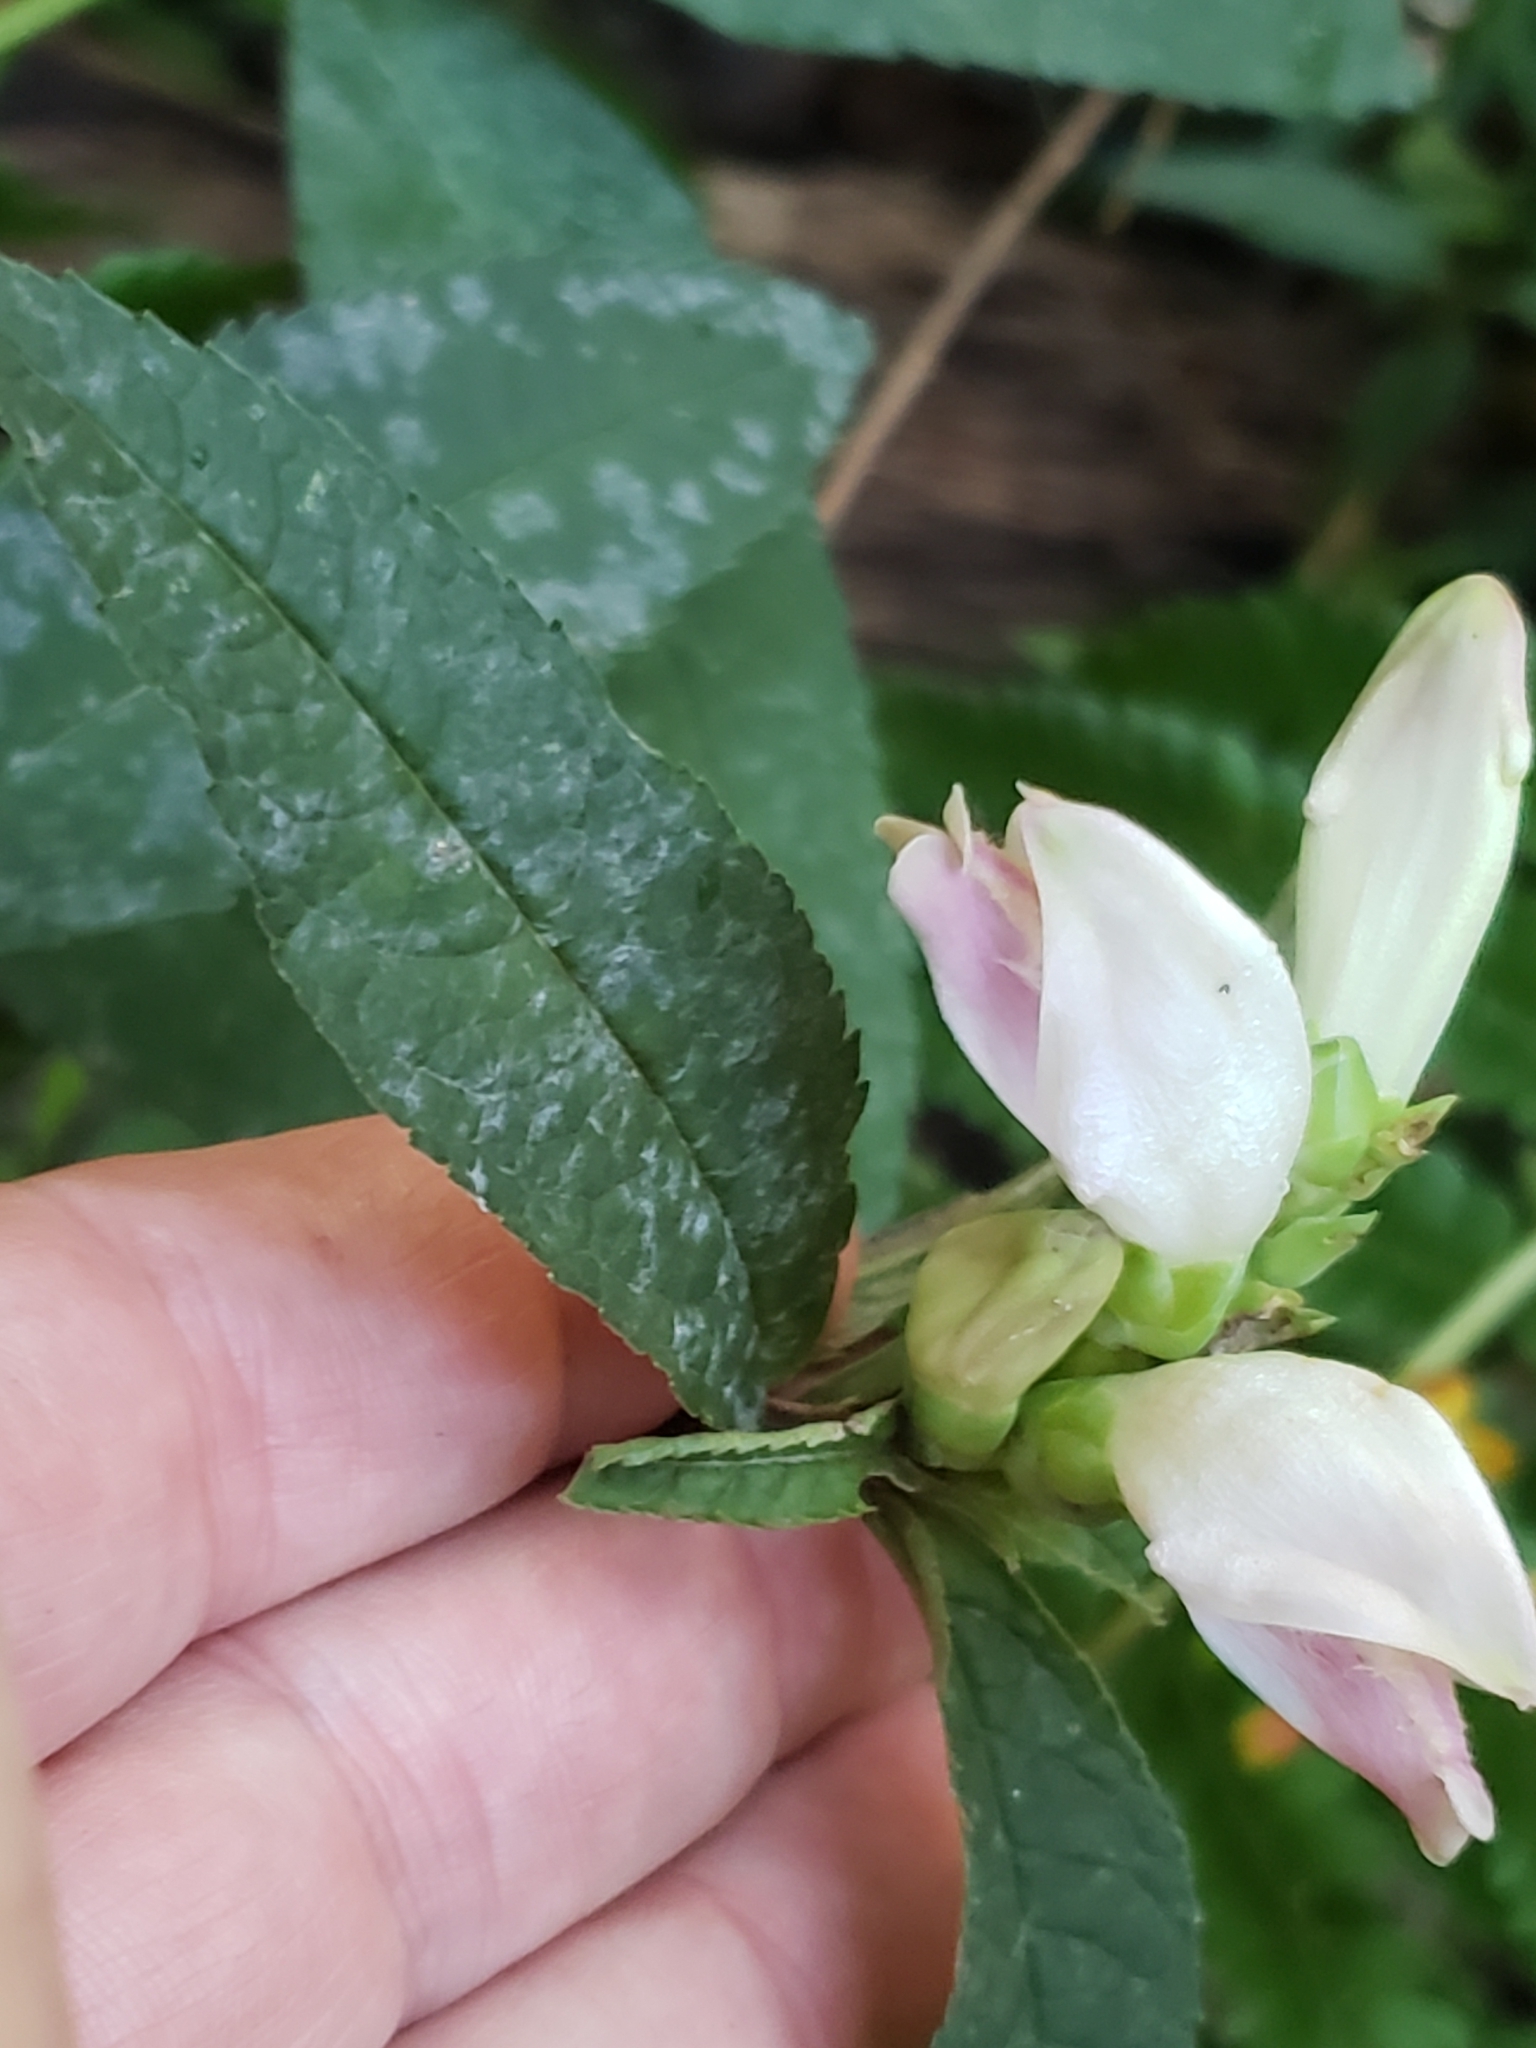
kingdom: Plantae
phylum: Tracheophyta
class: Magnoliopsida
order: Lamiales
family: Plantaginaceae
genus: Chelone
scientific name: Chelone glabra
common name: Snakehead
